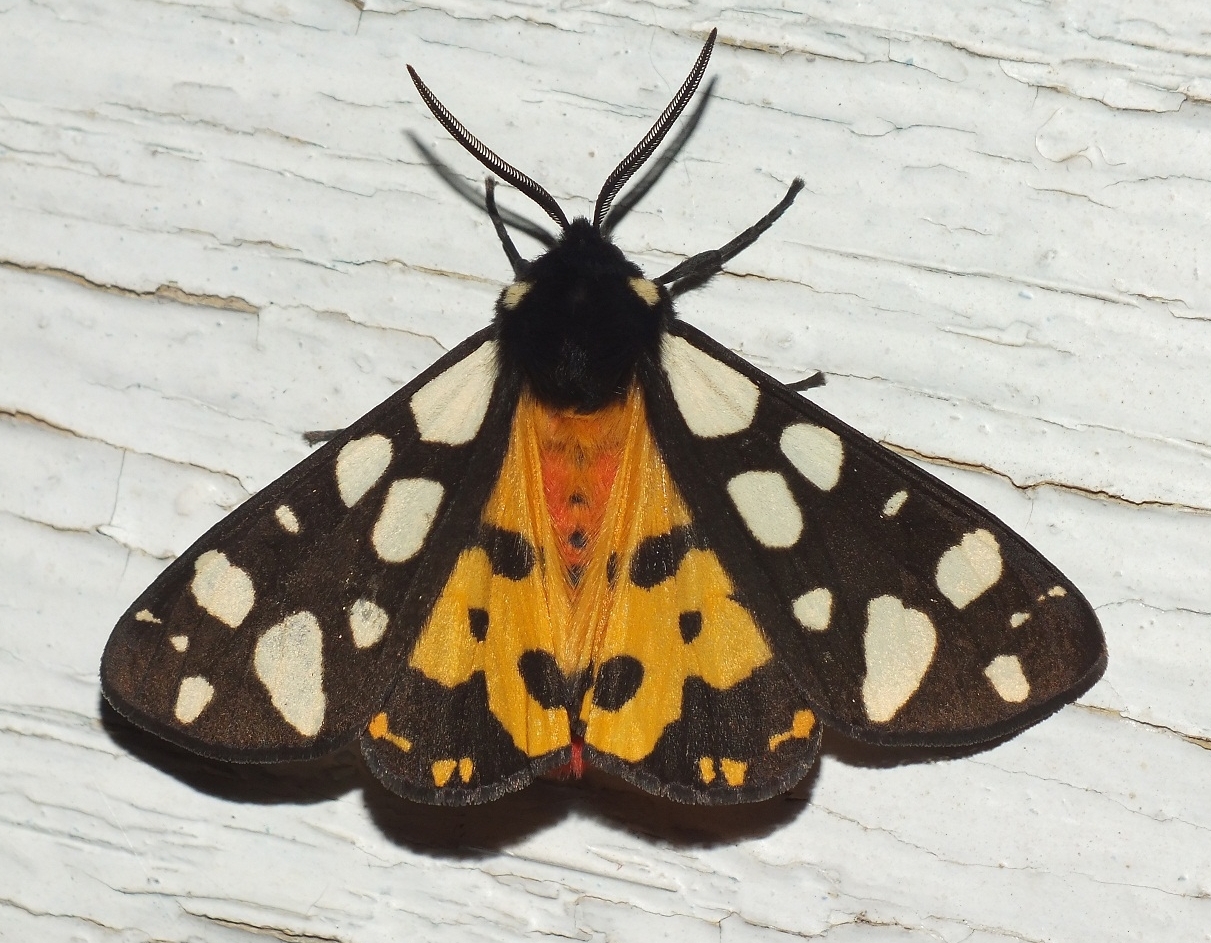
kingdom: Animalia
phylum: Arthropoda
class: Insecta
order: Lepidoptera
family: Erebidae
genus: Epicallia
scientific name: Epicallia villica
